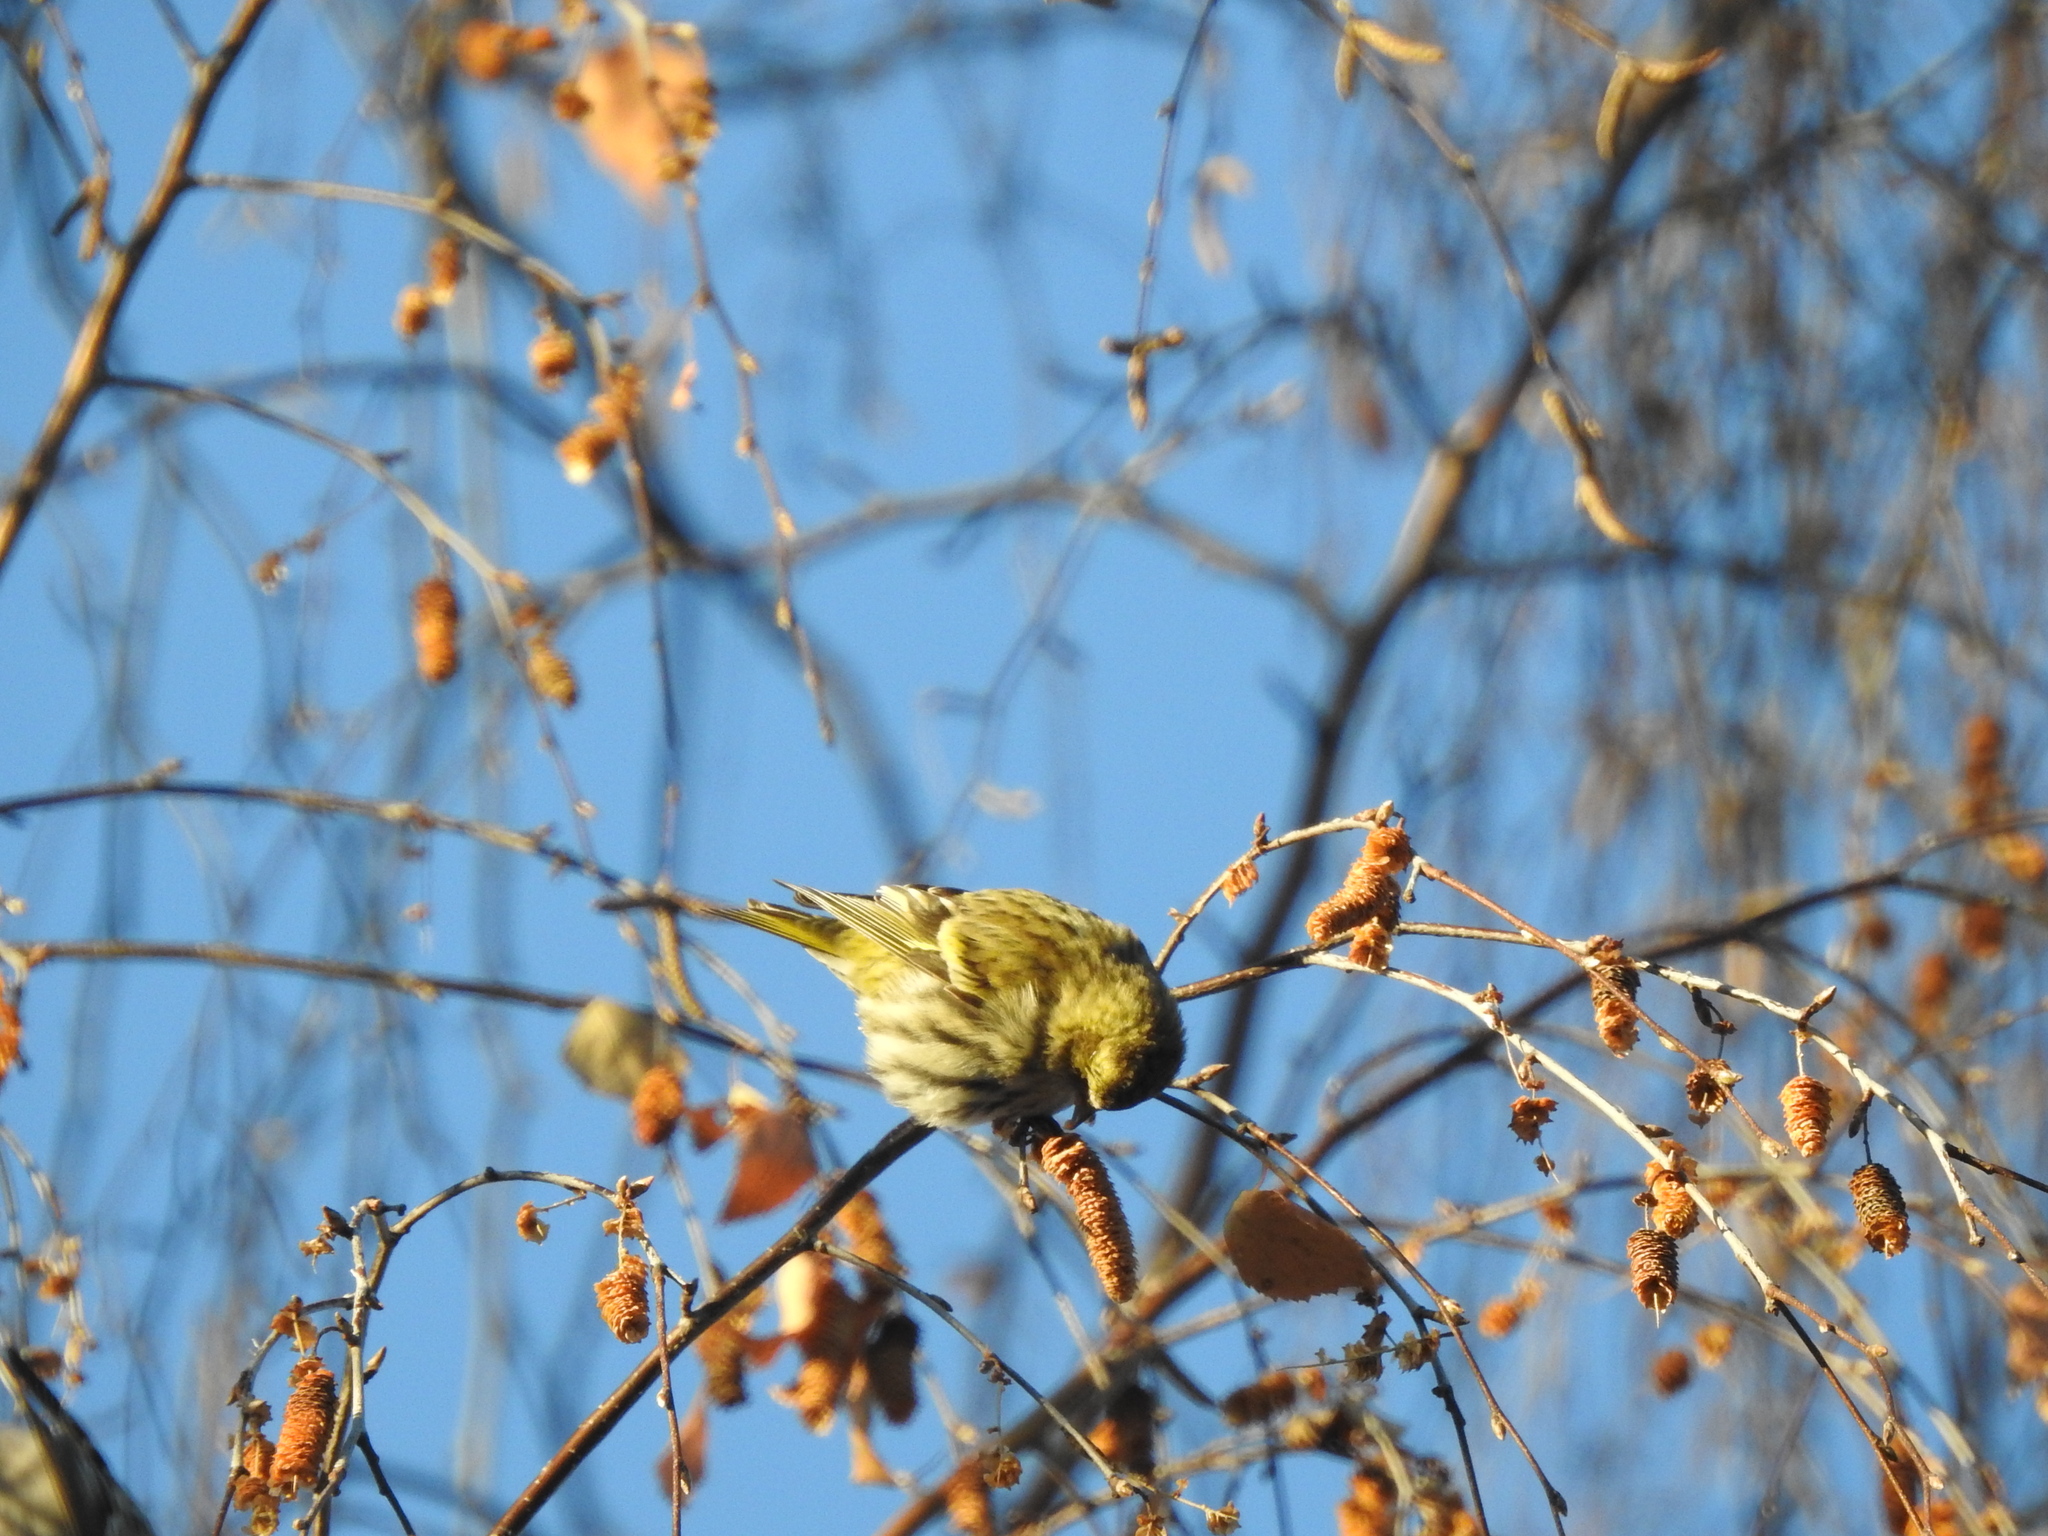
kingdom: Animalia
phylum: Chordata
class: Aves
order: Passeriformes
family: Fringillidae
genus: Spinus
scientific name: Spinus spinus
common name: Eurasian siskin
